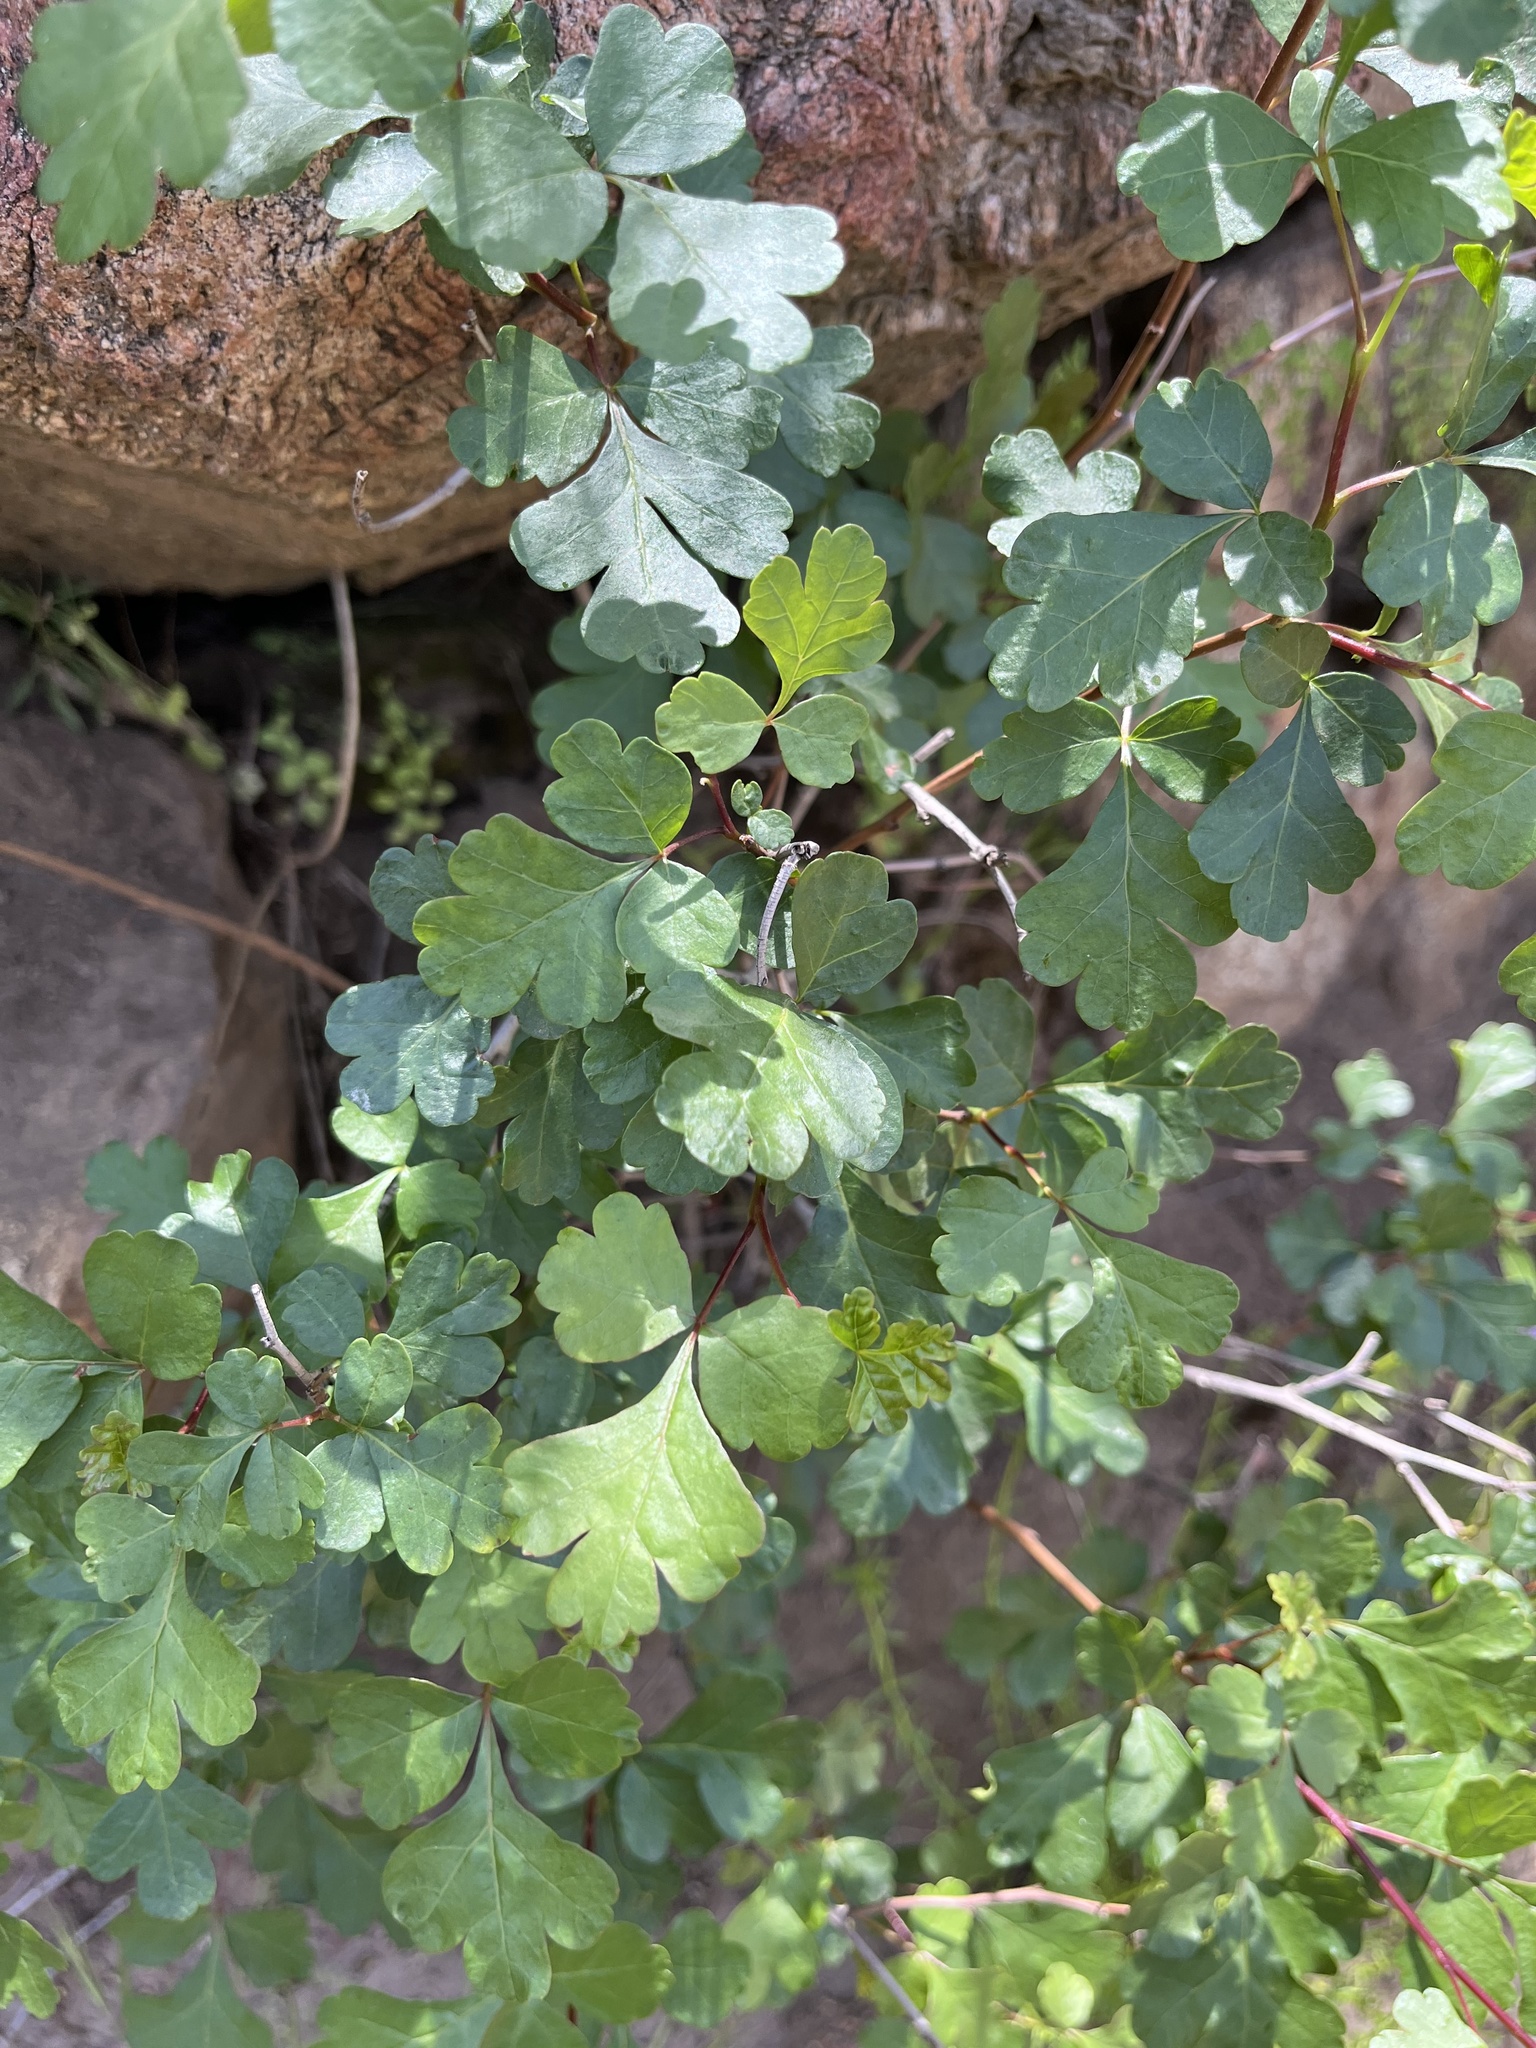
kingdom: Plantae
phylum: Tracheophyta
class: Magnoliopsida
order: Sapindales
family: Anacardiaceae
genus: Rhus
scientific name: Rhus aromatica
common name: Aromatic sumac
